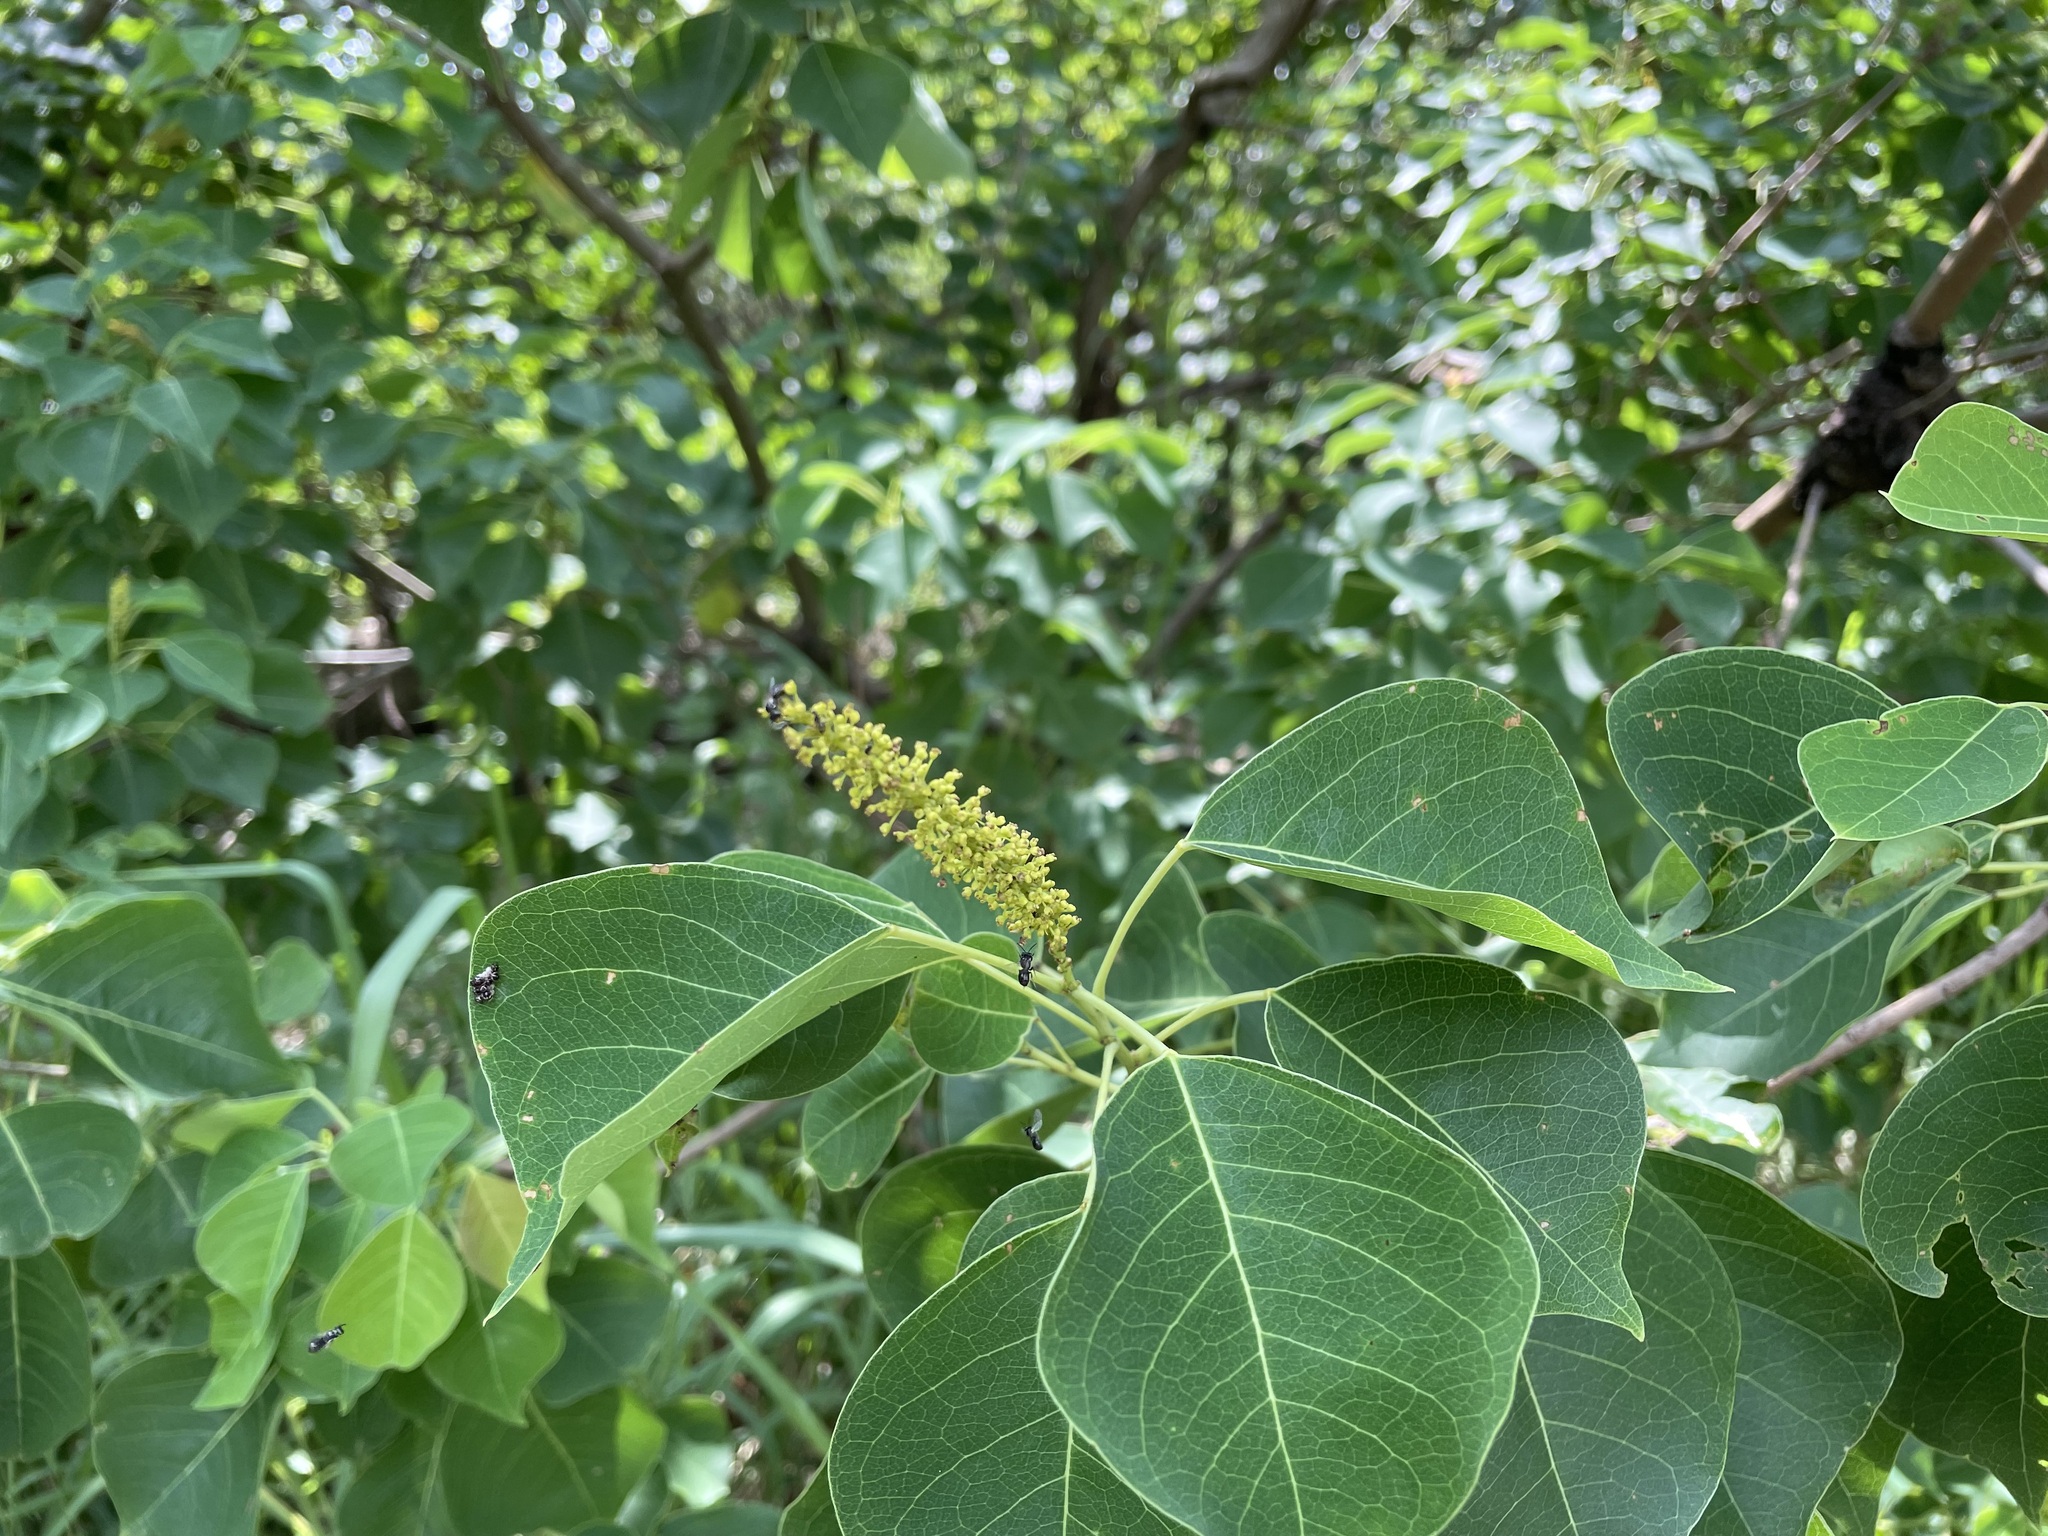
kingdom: Plantae
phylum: Tracheophyta
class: Magnoliopsida
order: Malpighiales
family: Euphorbiaceae
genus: Triadica
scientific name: Triadica sebifera
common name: Chinese tallow
